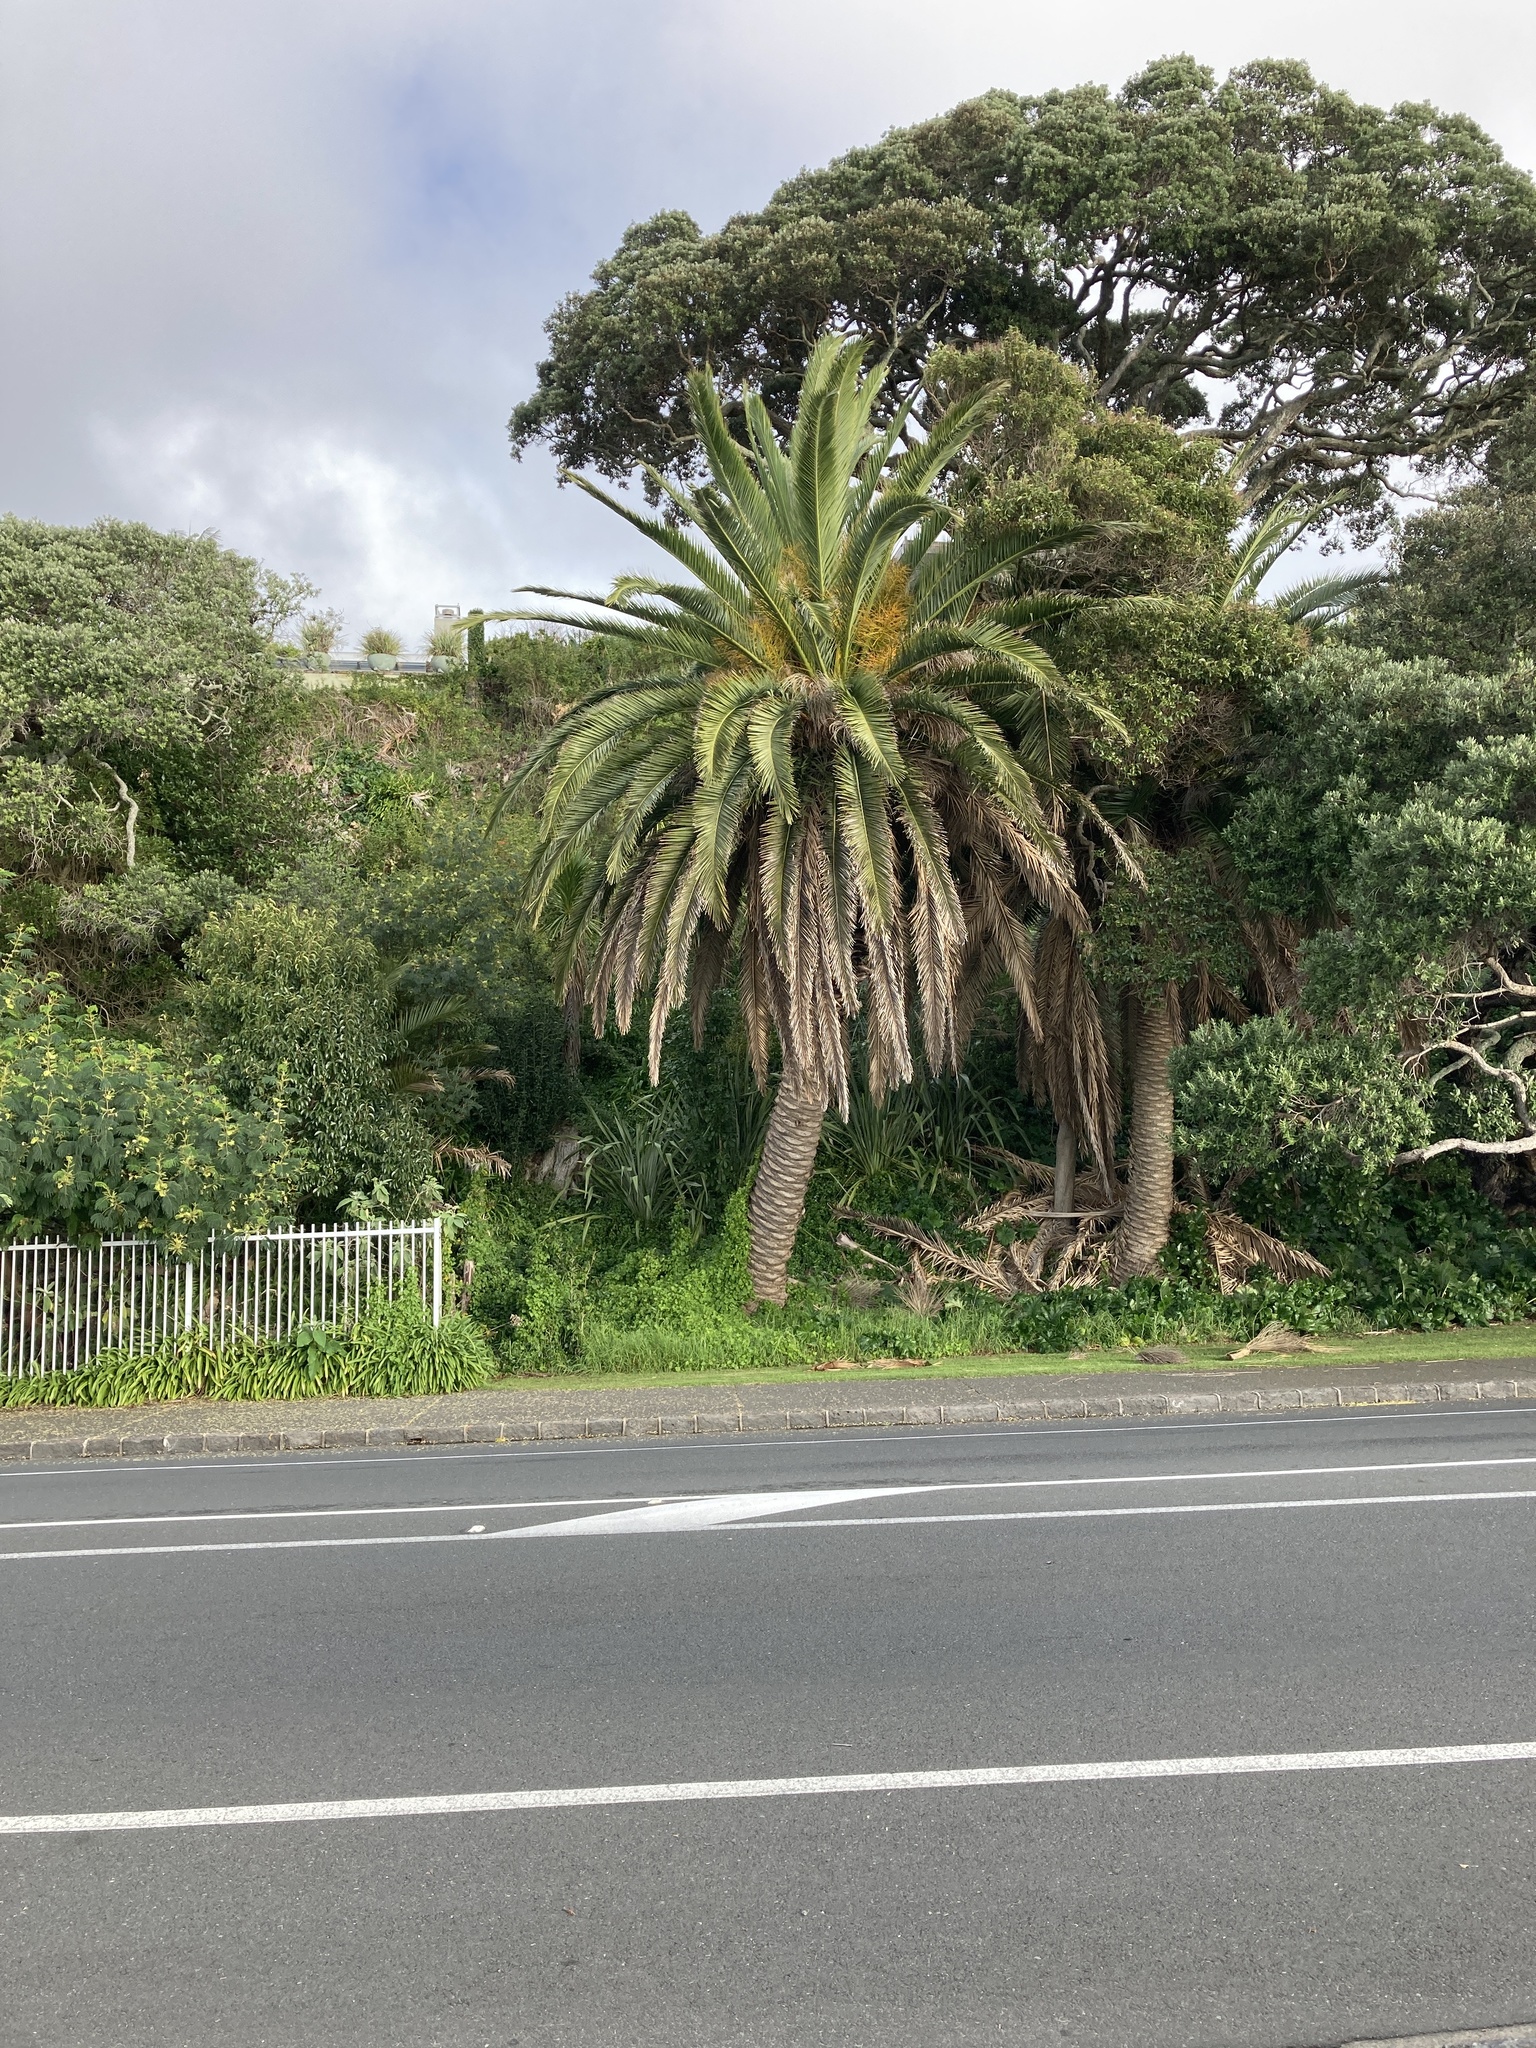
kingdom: Plantae
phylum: Tracheophyta
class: Liliopsida
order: Arecales
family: Arecaceae
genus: Phoenix
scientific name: Phoenix canariensis
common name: Canary island date palm
